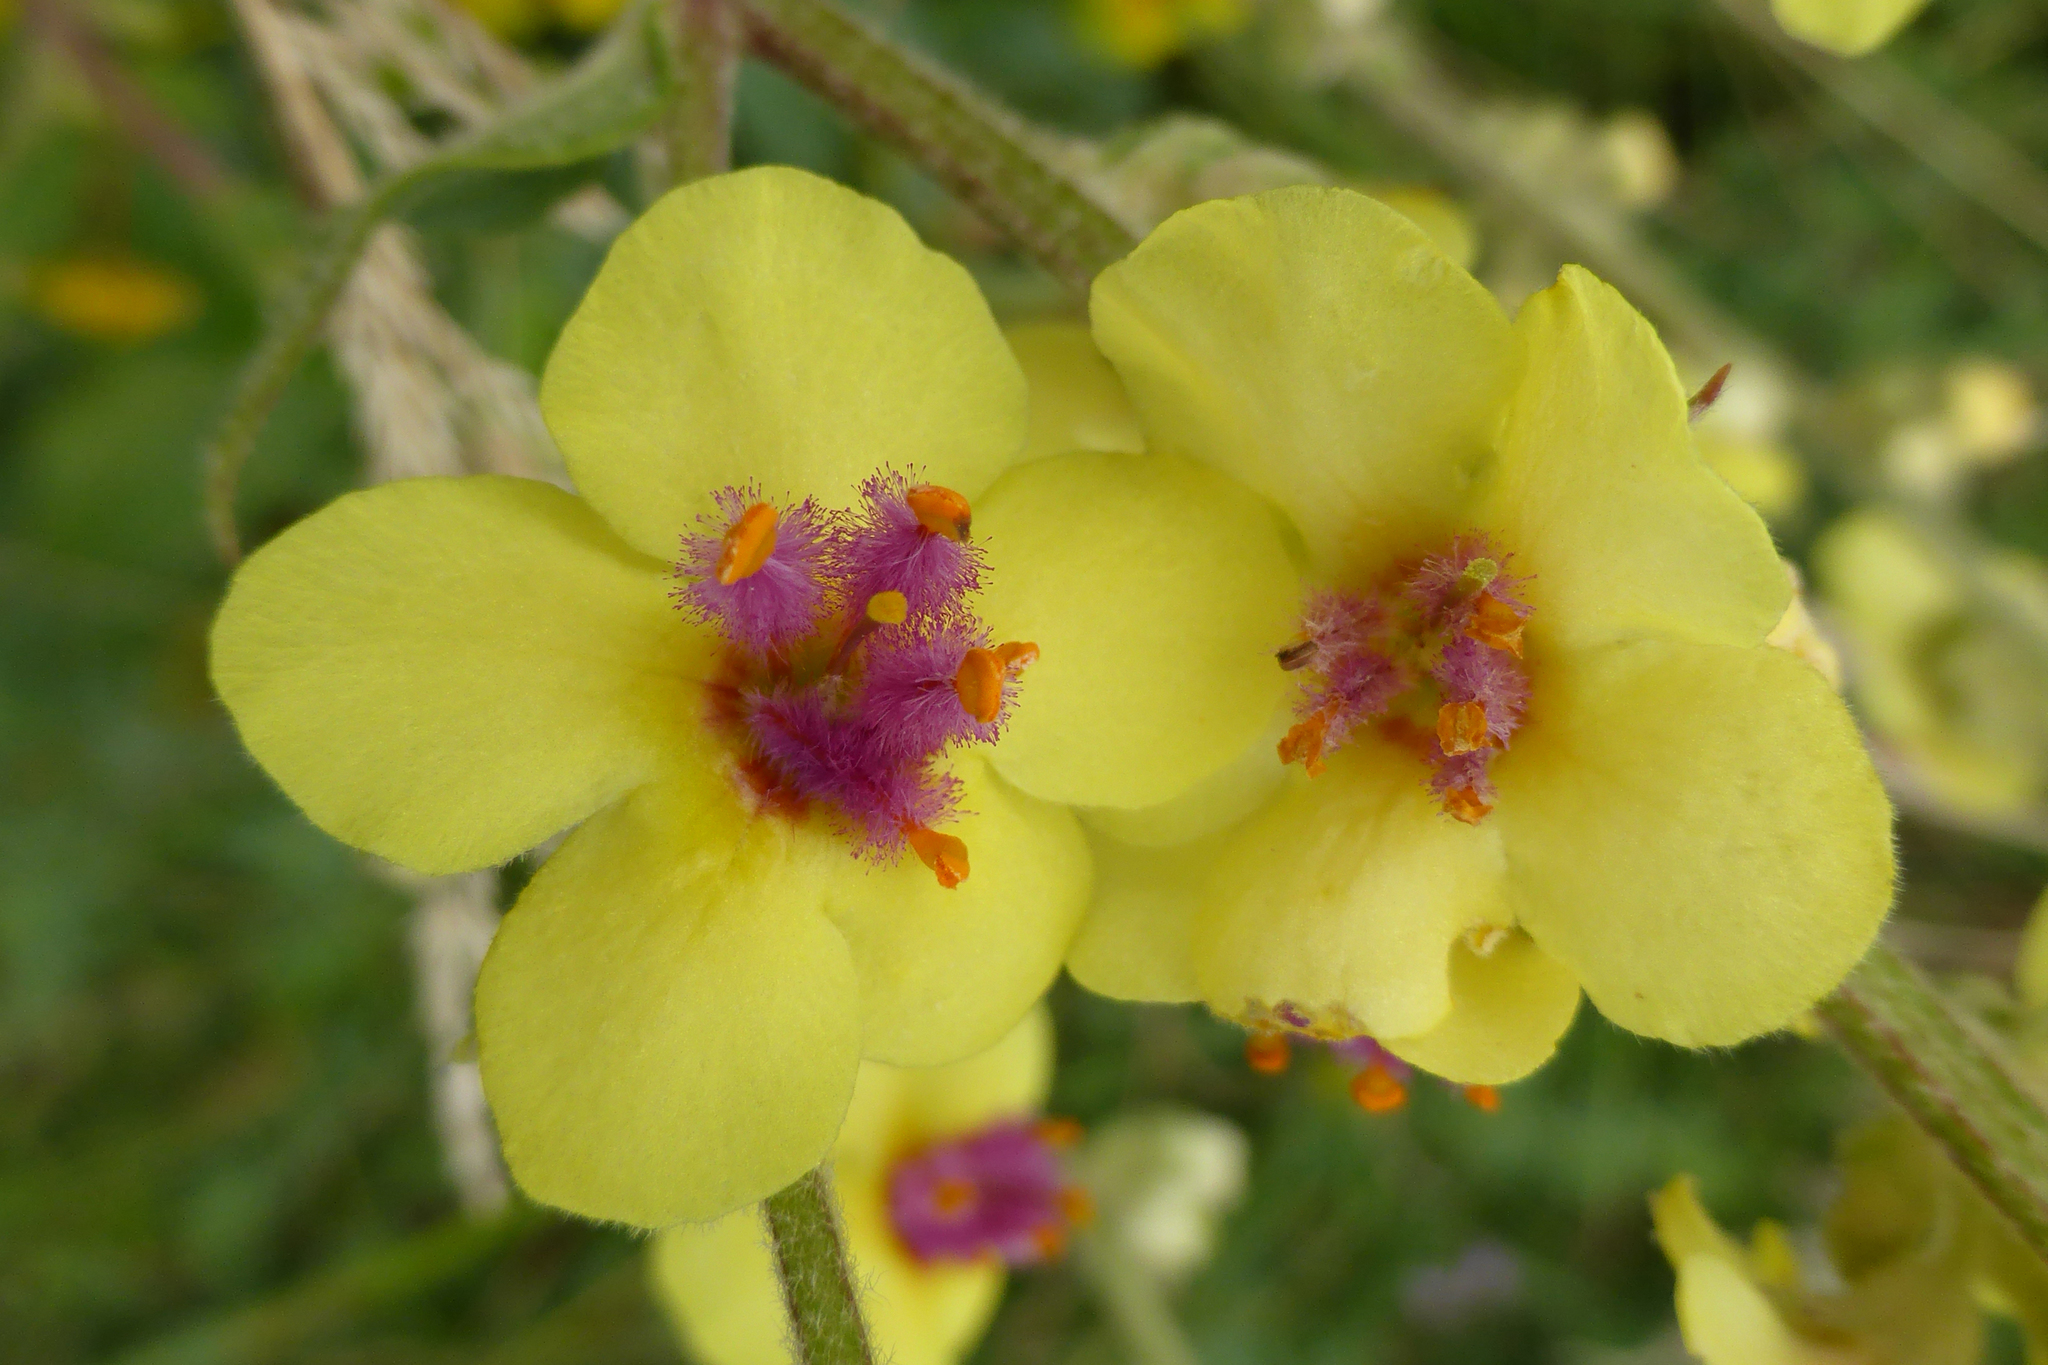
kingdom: Plantae
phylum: Tracheophyta
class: Magnoliopsida
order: Lamiales
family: Scrophulariaceae
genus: Verbascum
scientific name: Verbascum chaixii
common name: Nettle-leaved mullein
